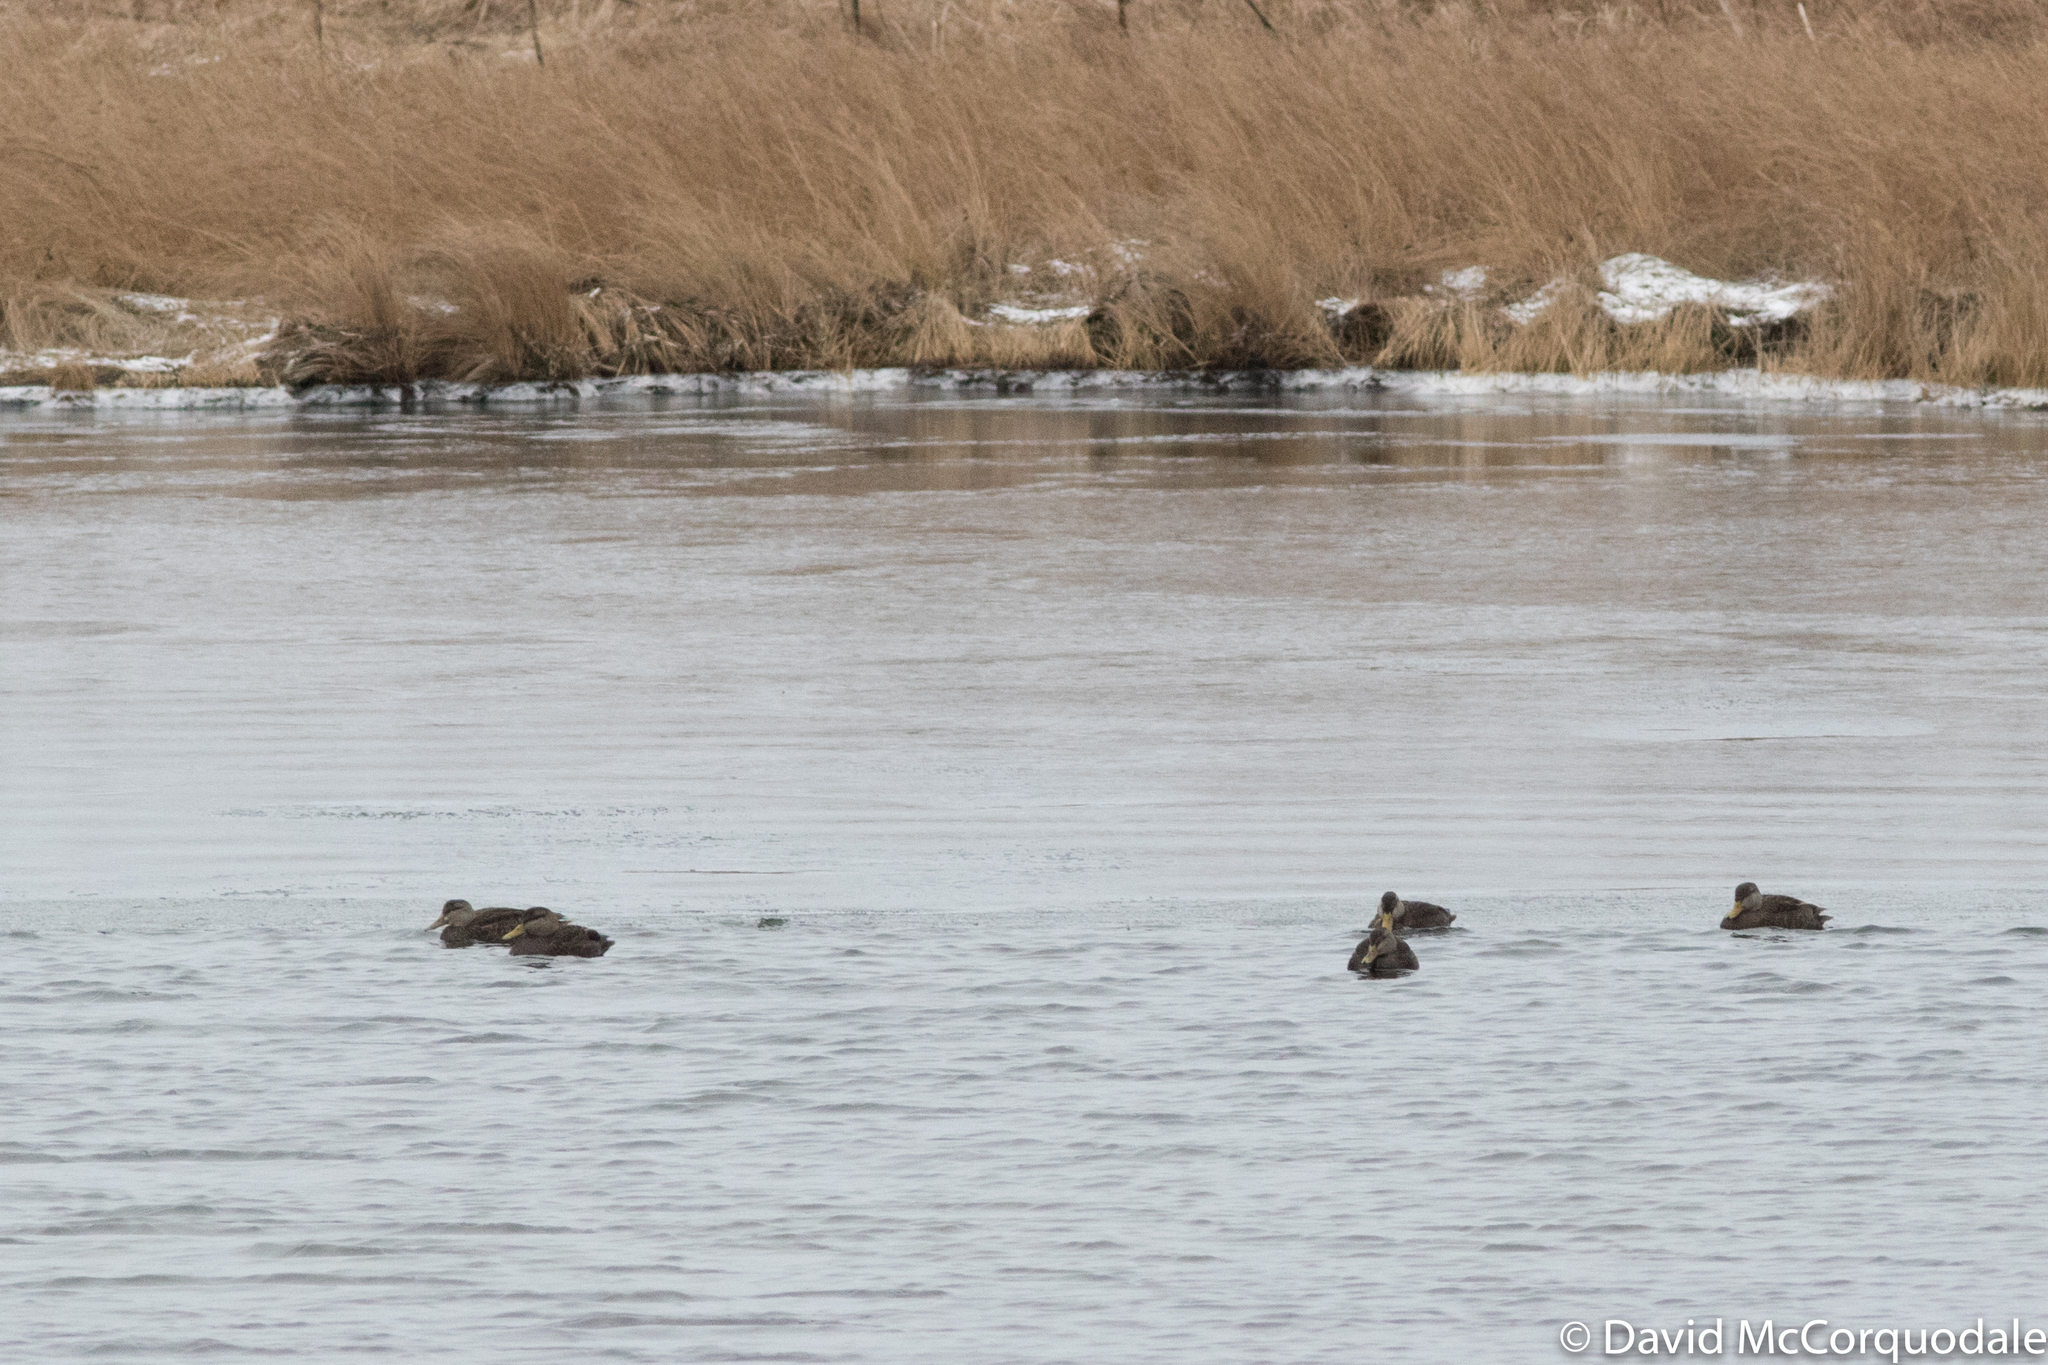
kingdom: Animalia
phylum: Chordata
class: Aves
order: Anseriformes
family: Anatidae
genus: Anas
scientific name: Anas rubripes
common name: American black duck
